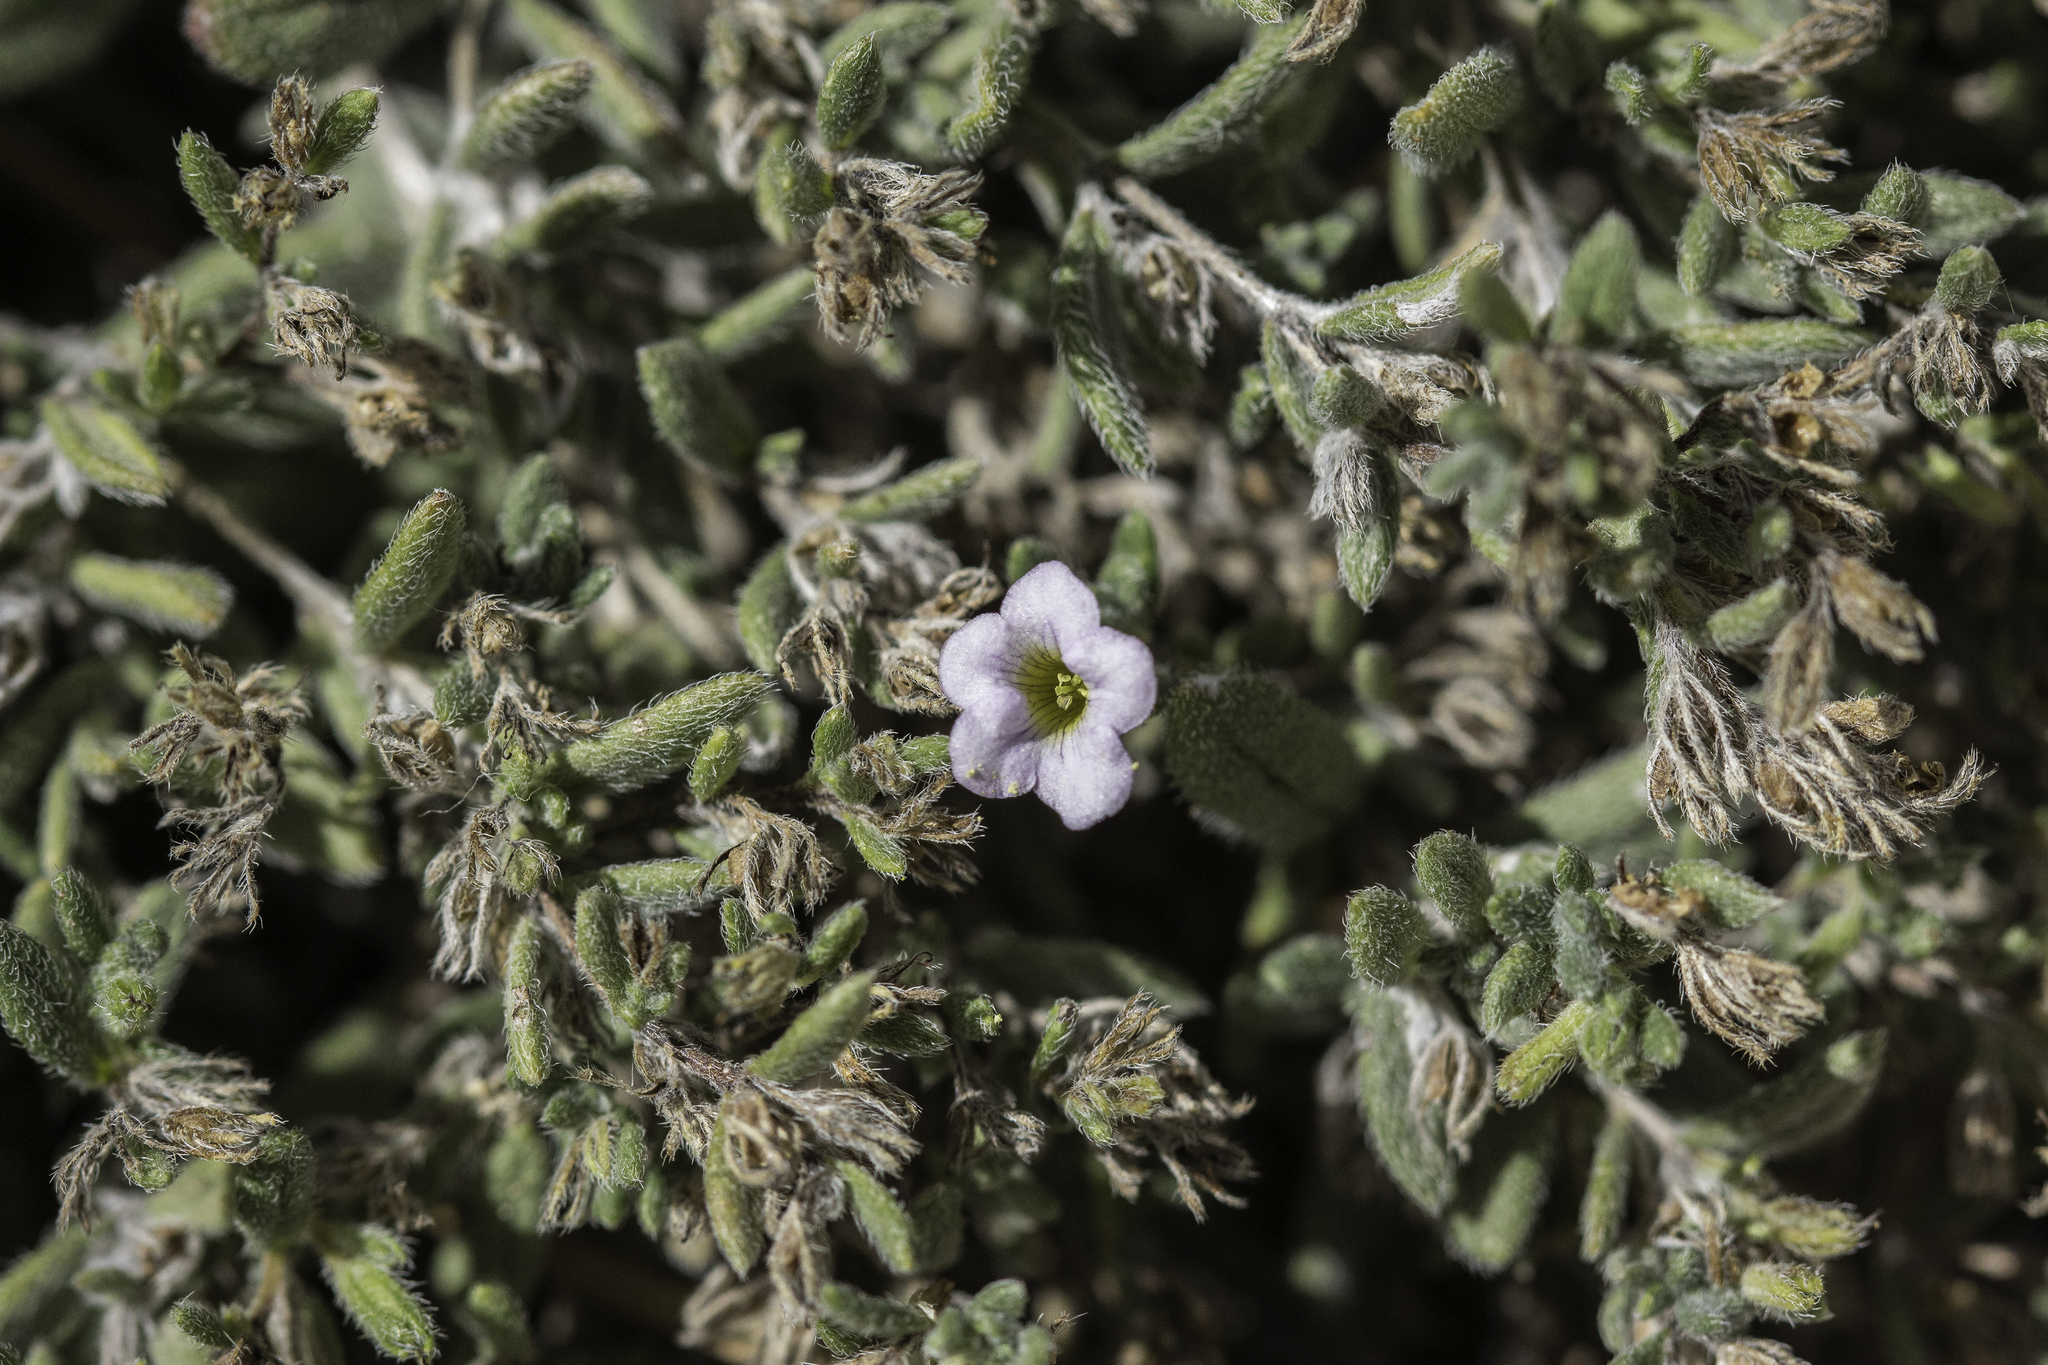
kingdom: Plantae
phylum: Tracheophyta
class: Magnoliopsida
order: Boraginales
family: Ehretiaceae
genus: Tiquilia
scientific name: Tiquilia gossypina
